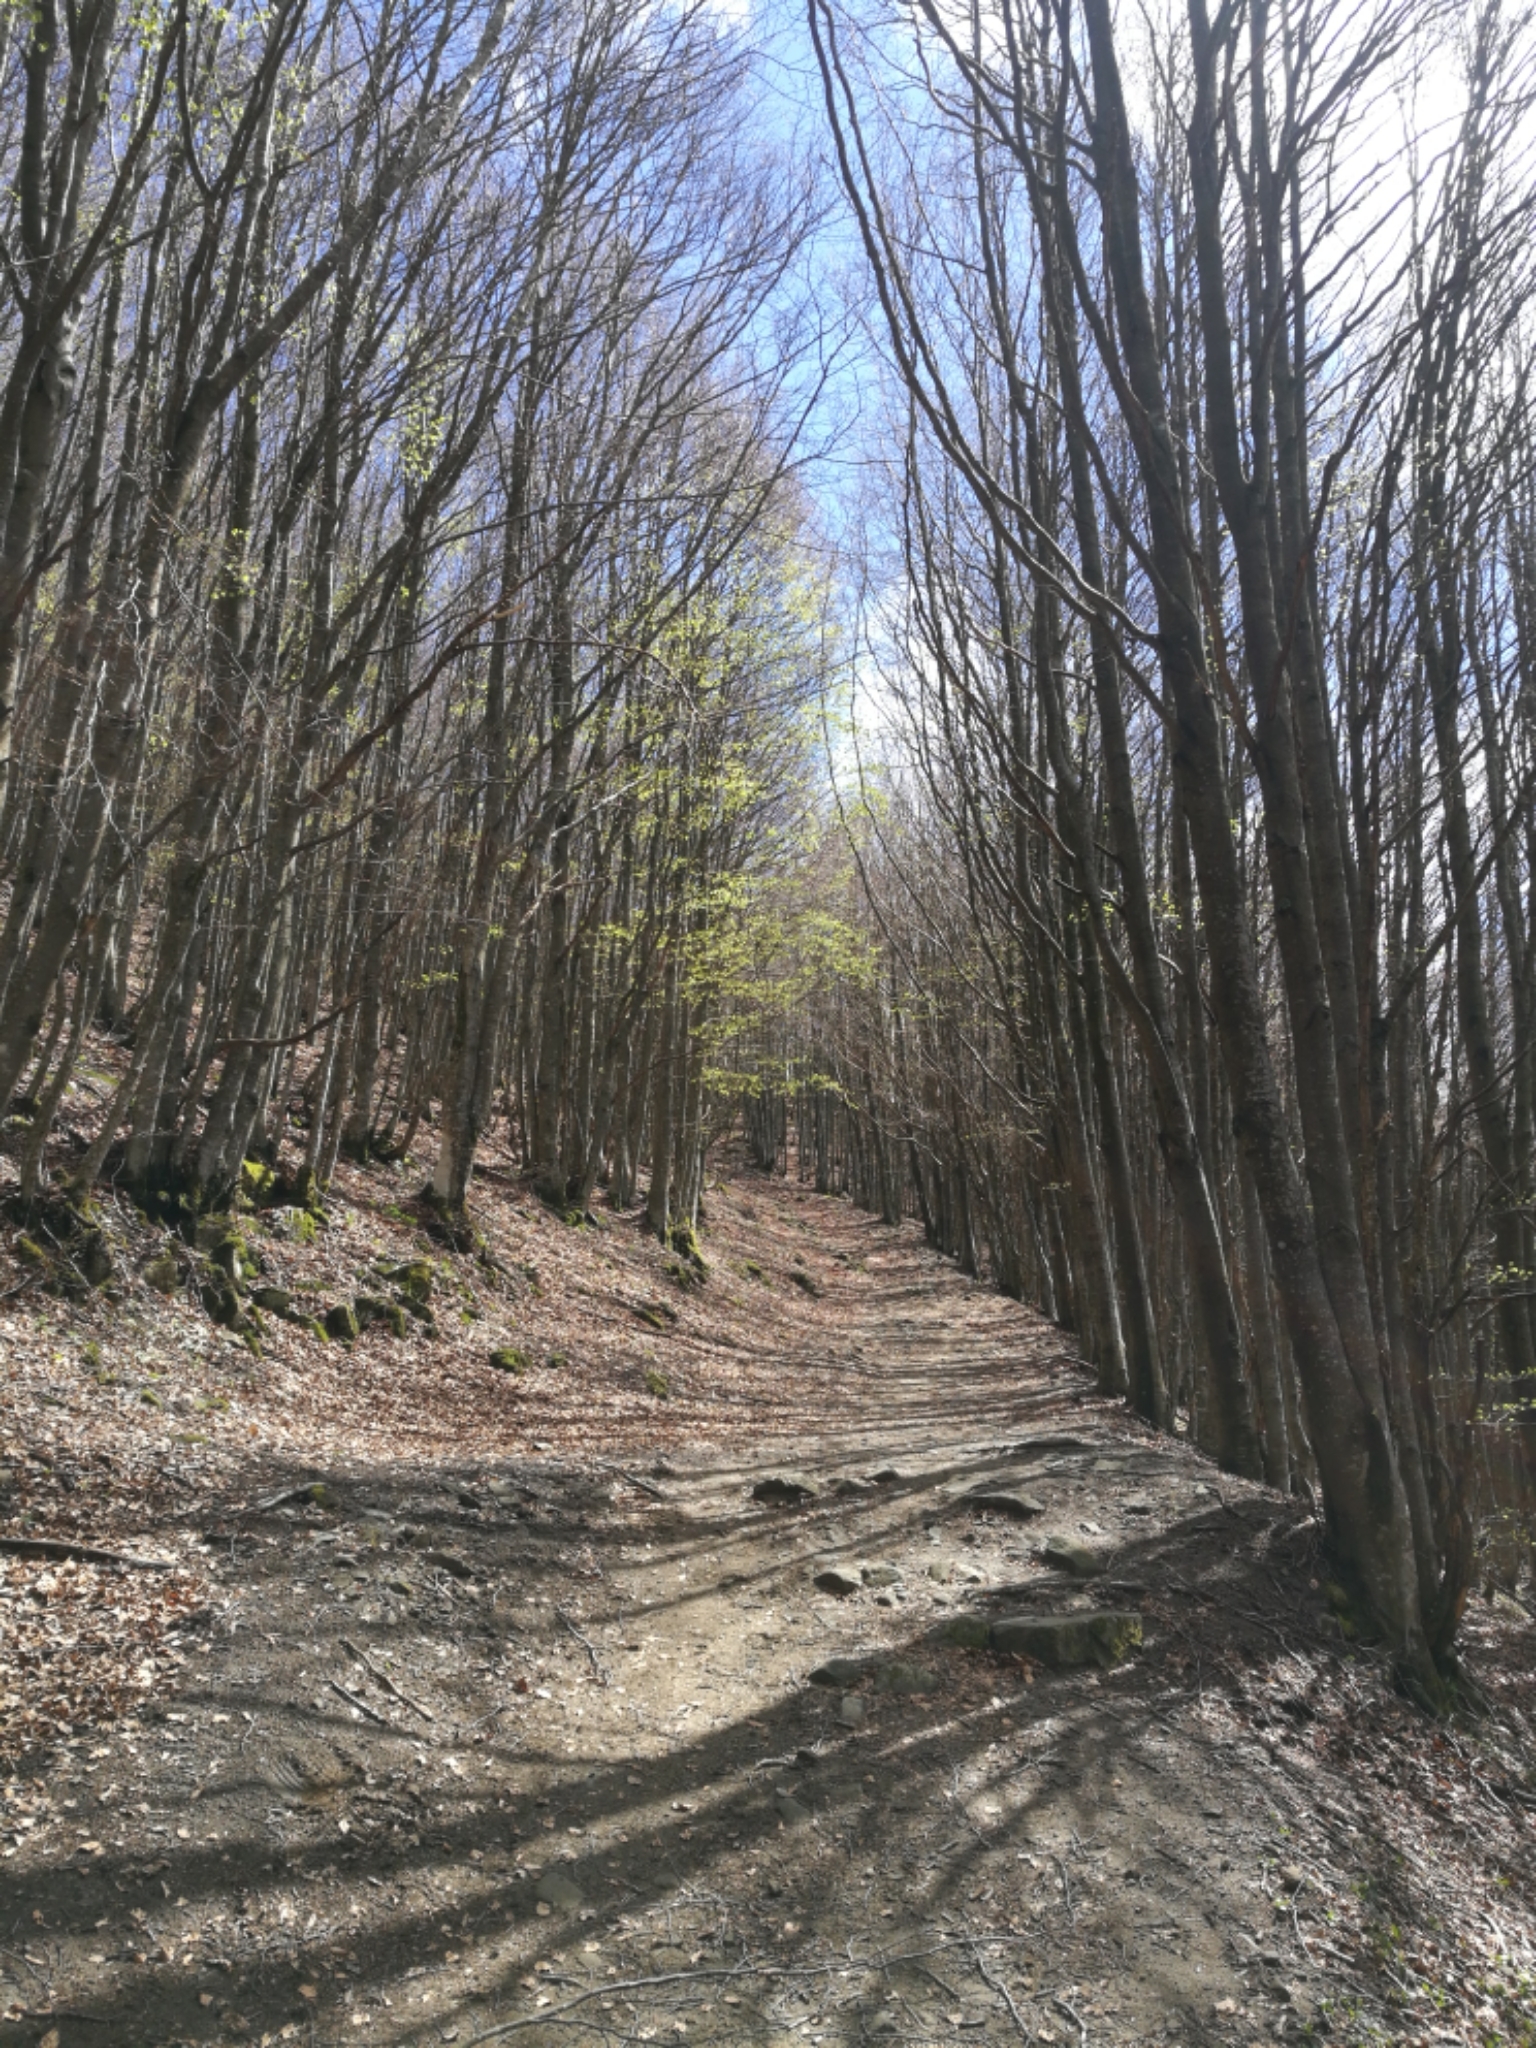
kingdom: Plantae
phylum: Tracheophyta
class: Magnoliopsida
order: Fagales
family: Fagaceae
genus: Fagus
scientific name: Fagus sylvatica
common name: Beech
